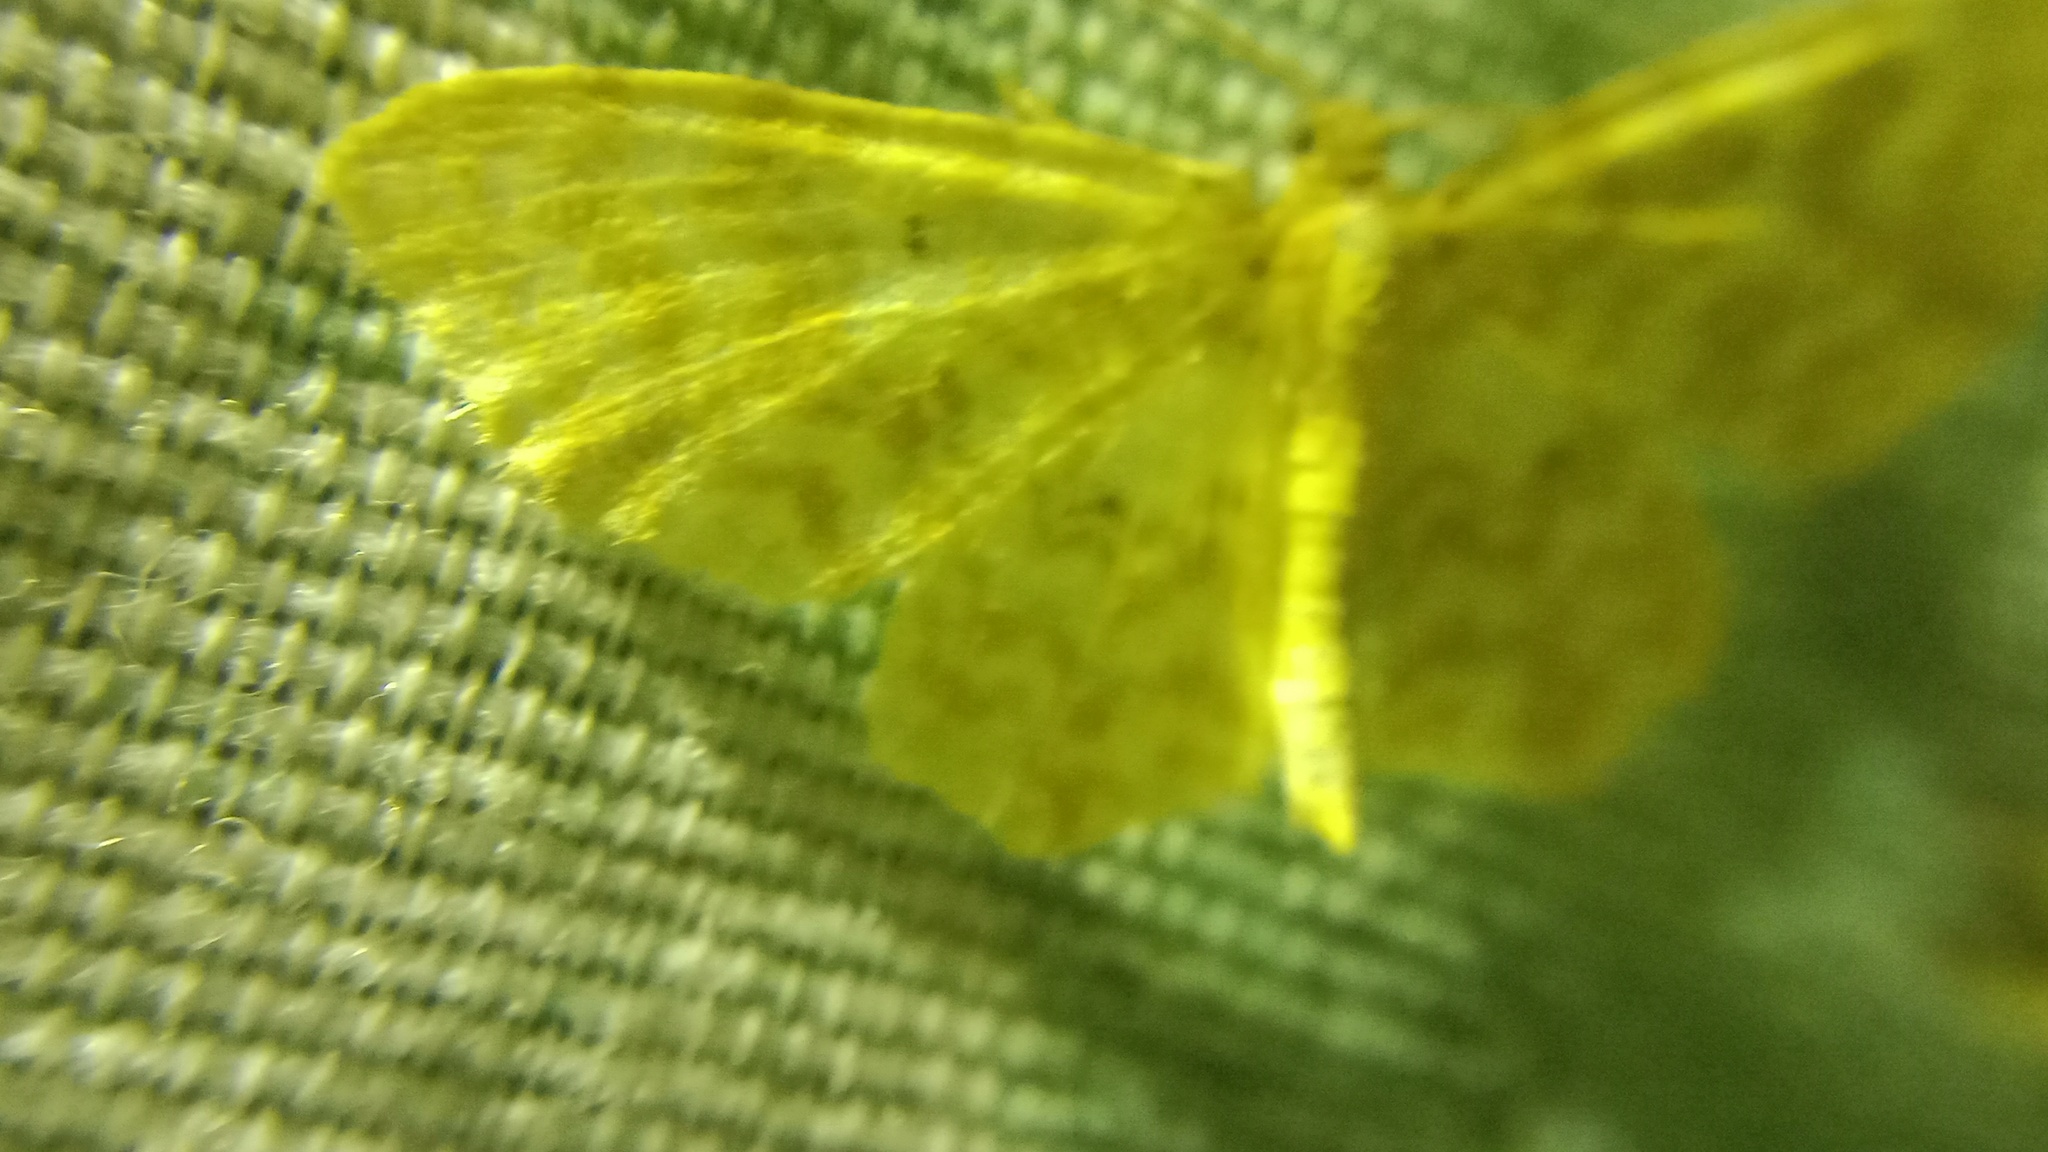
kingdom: Animalia
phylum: Arthropoda
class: Insecta
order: Lepidoptera
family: Geometridae
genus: Hydrelia
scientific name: Hydrelia flammeolaria
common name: Small yellow wave
